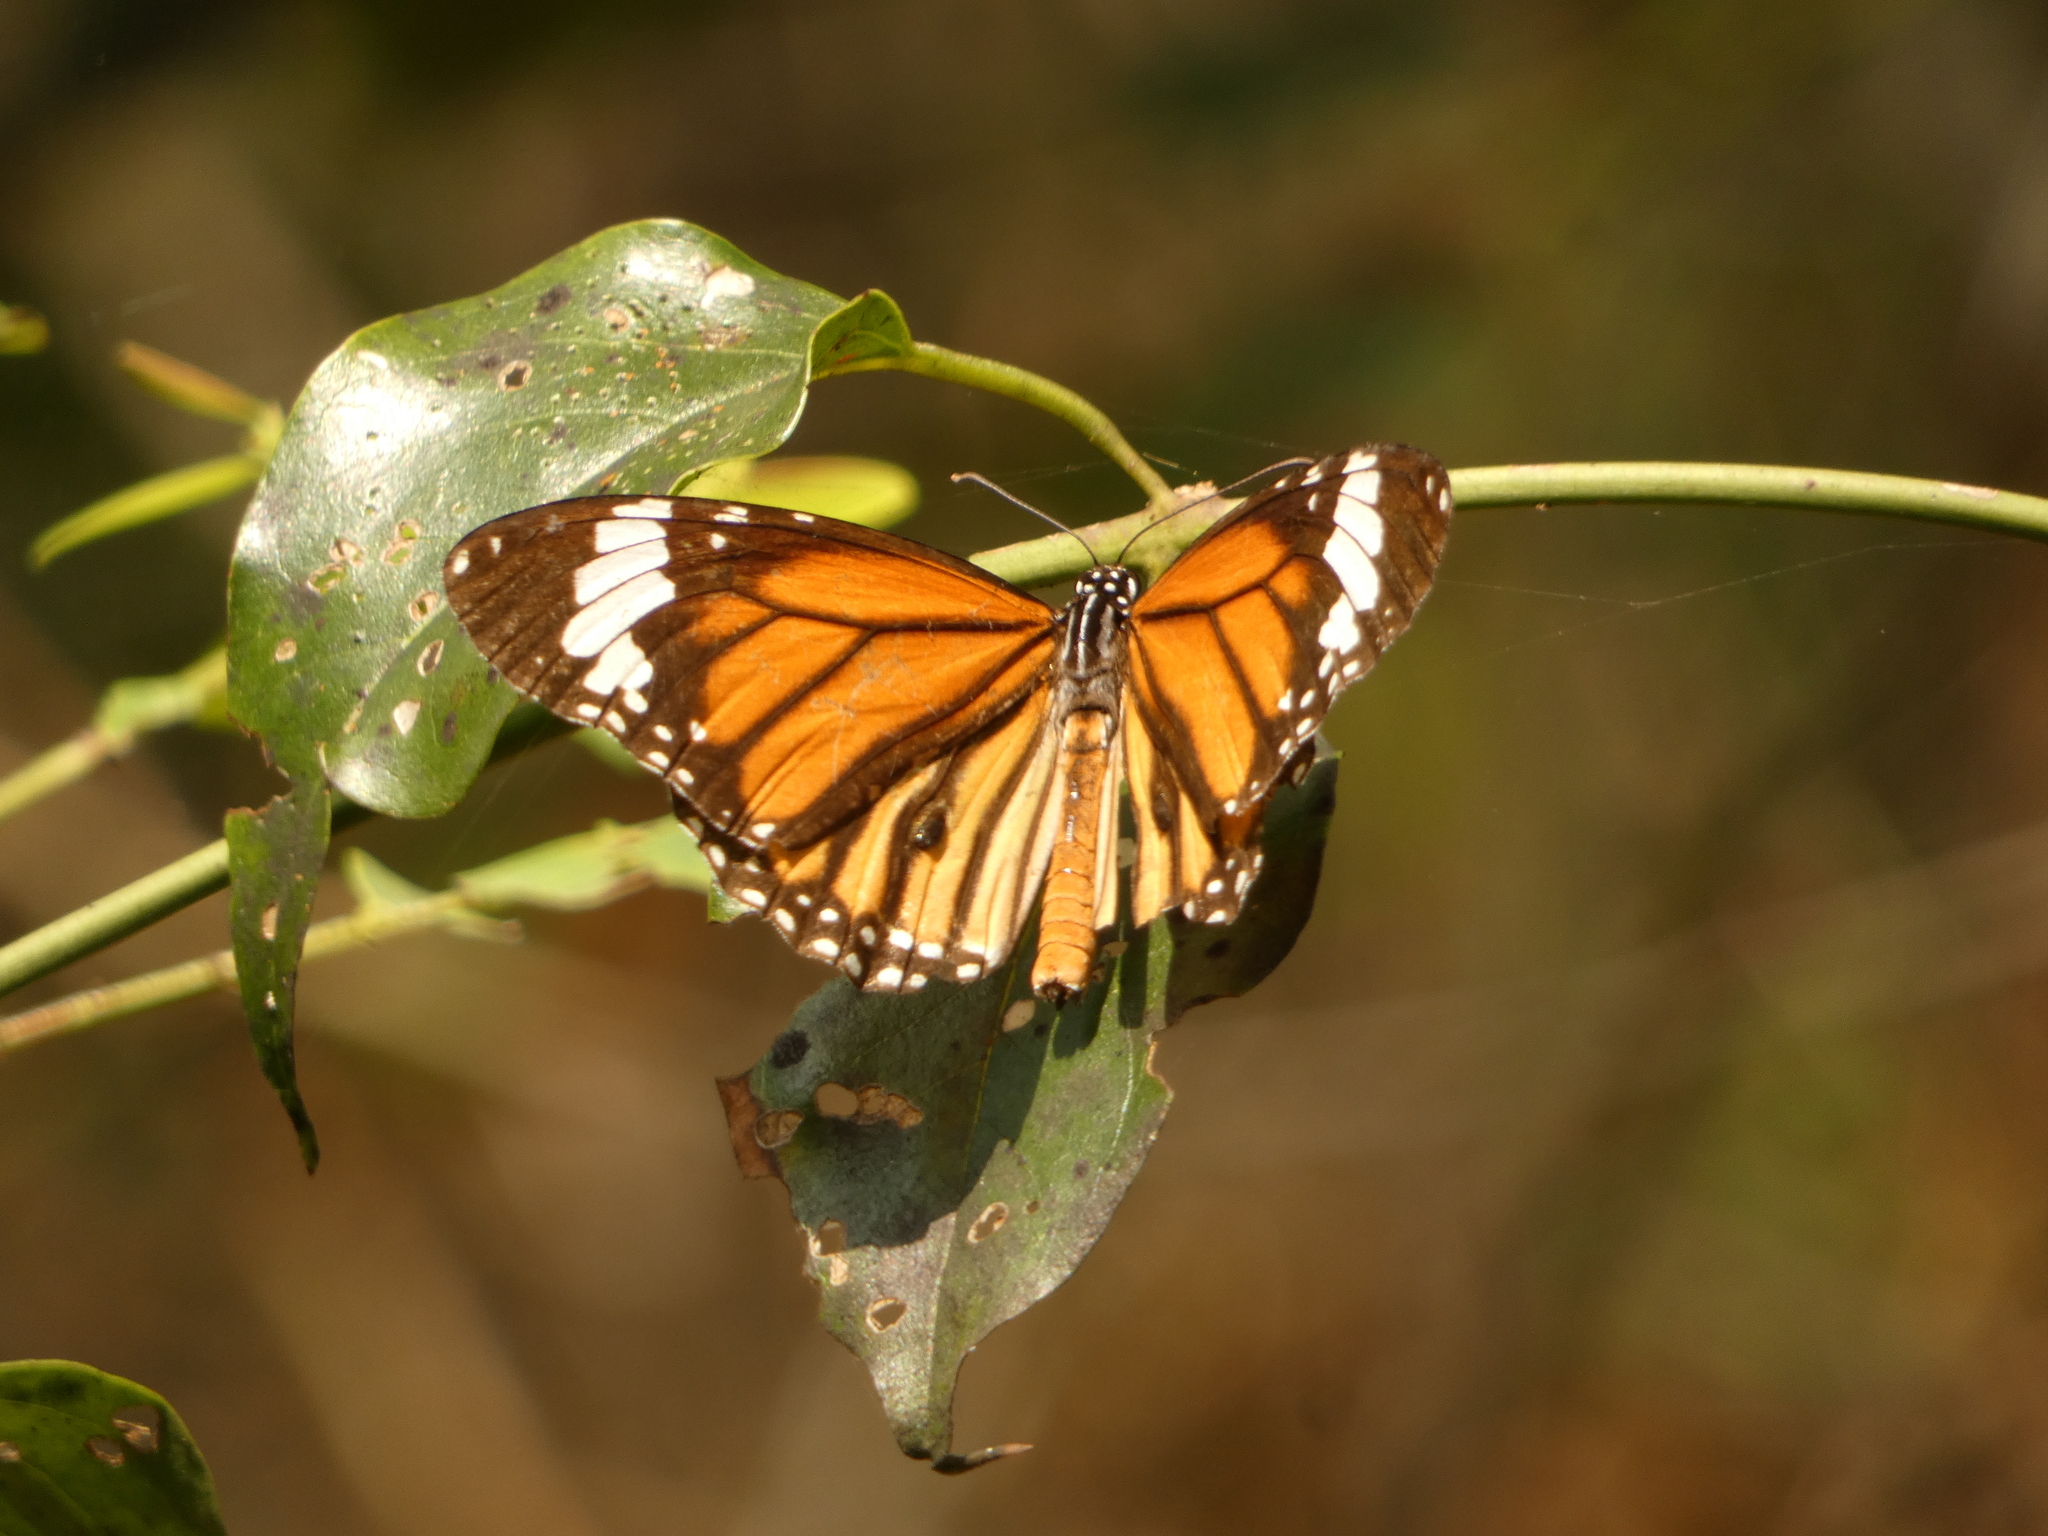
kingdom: Animalia
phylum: Arthropoda
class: Insecta
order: Lepidoptera
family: Nymphalidae
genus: Danaus
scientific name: Danaus genutia
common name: Common tiger butterfly
